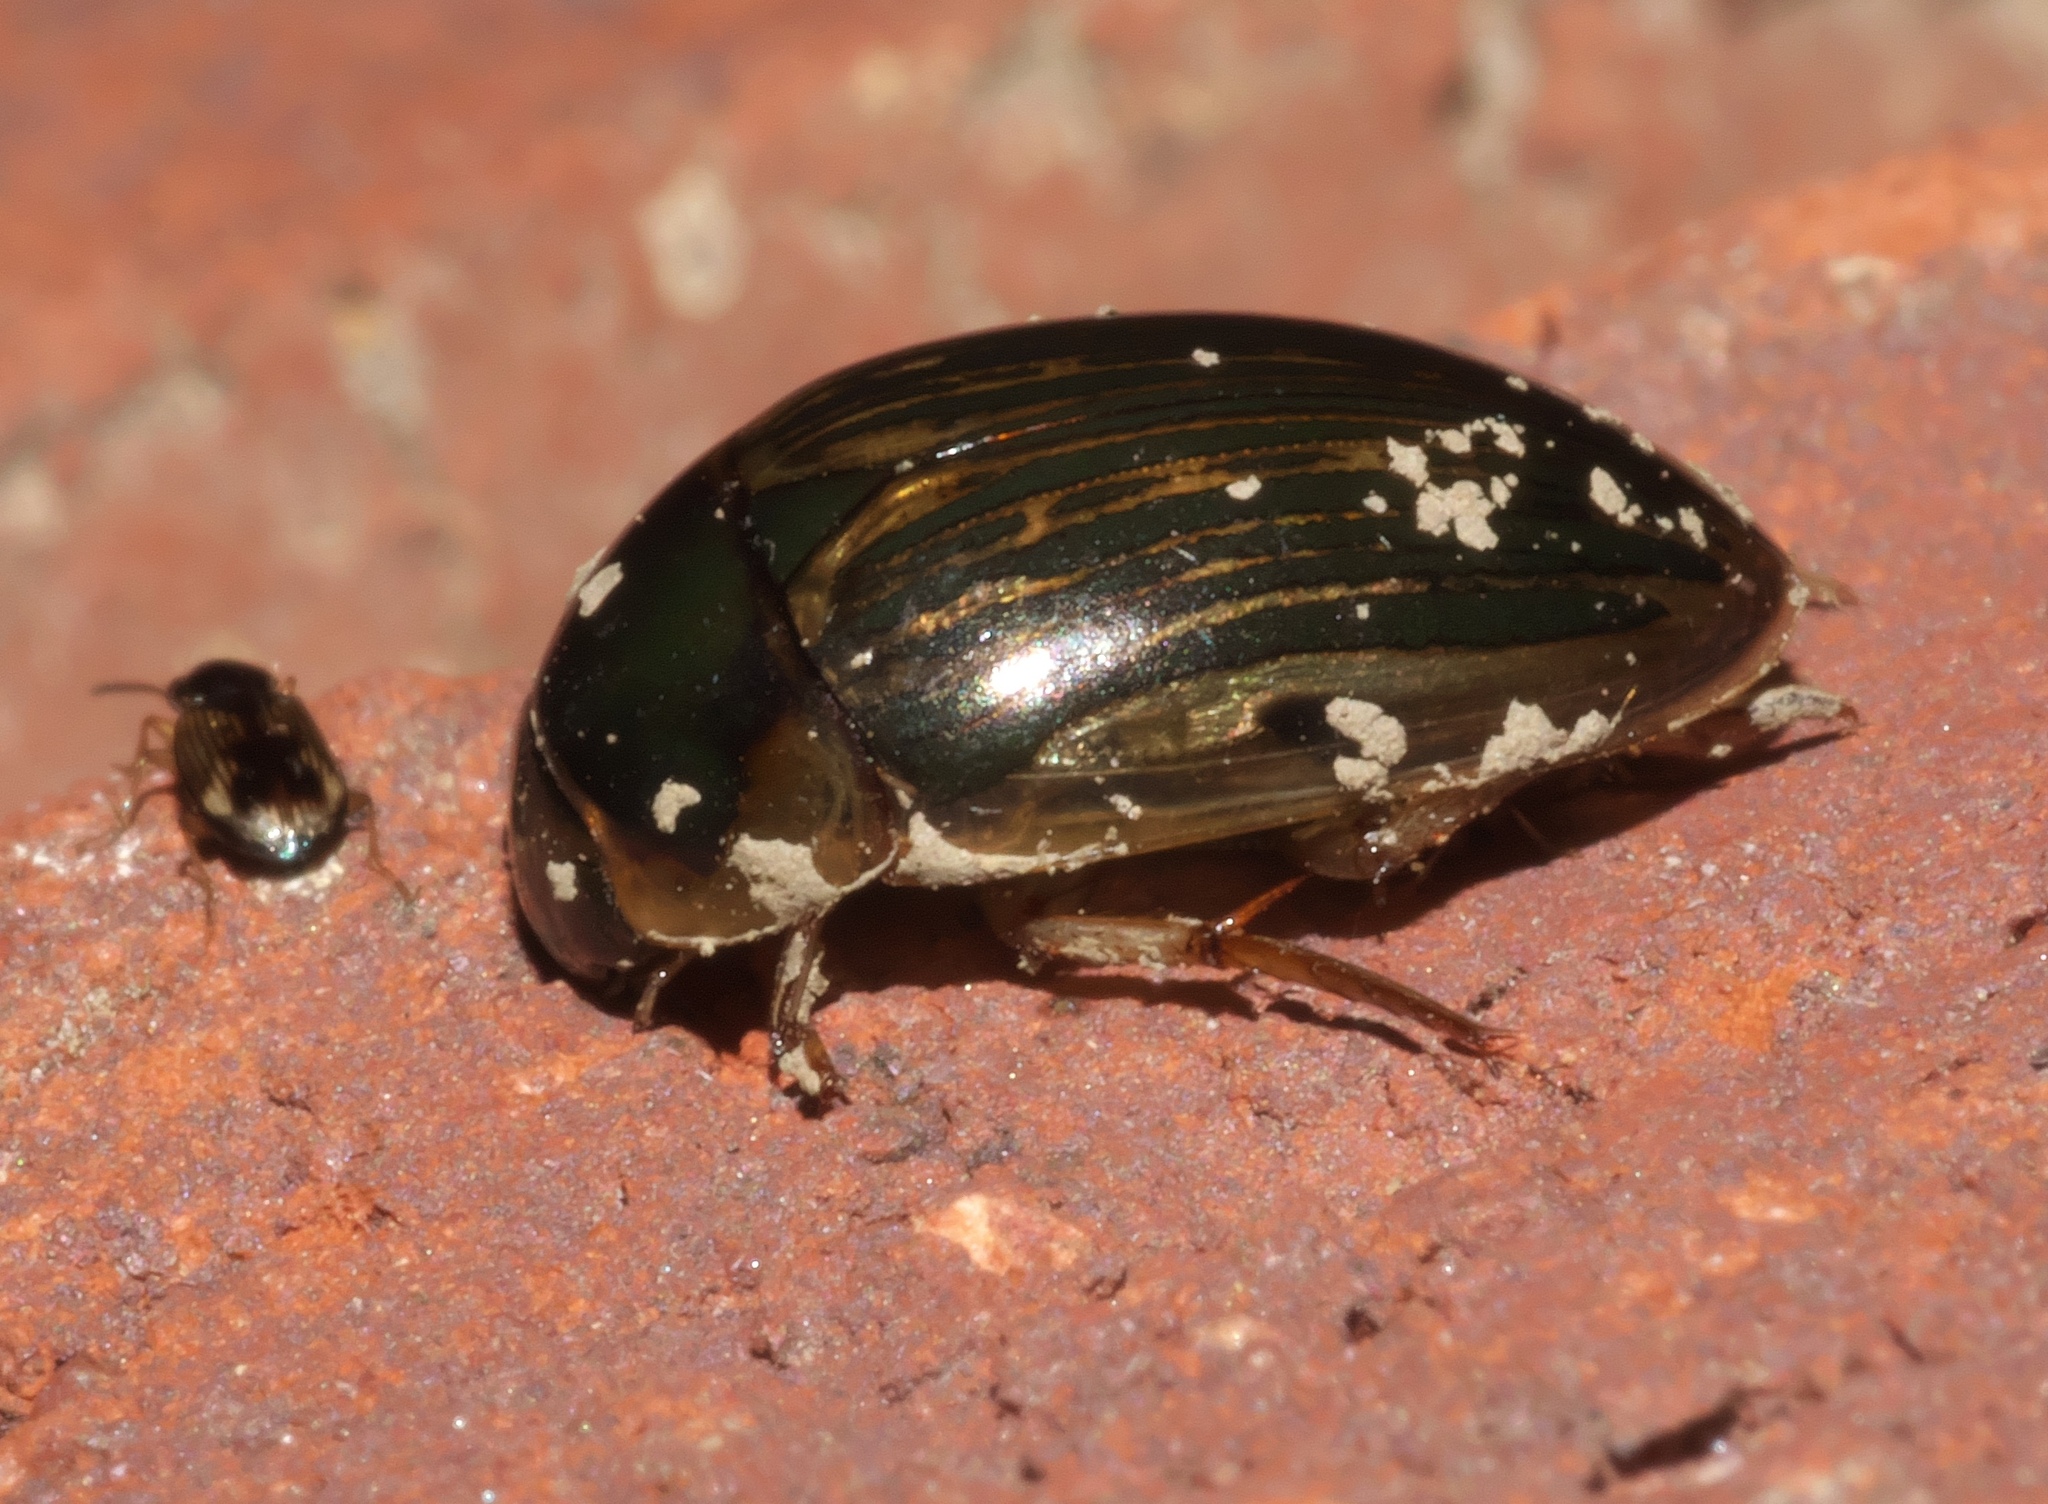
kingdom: Animalia
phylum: Arthropoda
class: Insecta
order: Coleoptera
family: Hydrophilidae
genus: Tropisternus
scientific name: Tropisternus collaris
